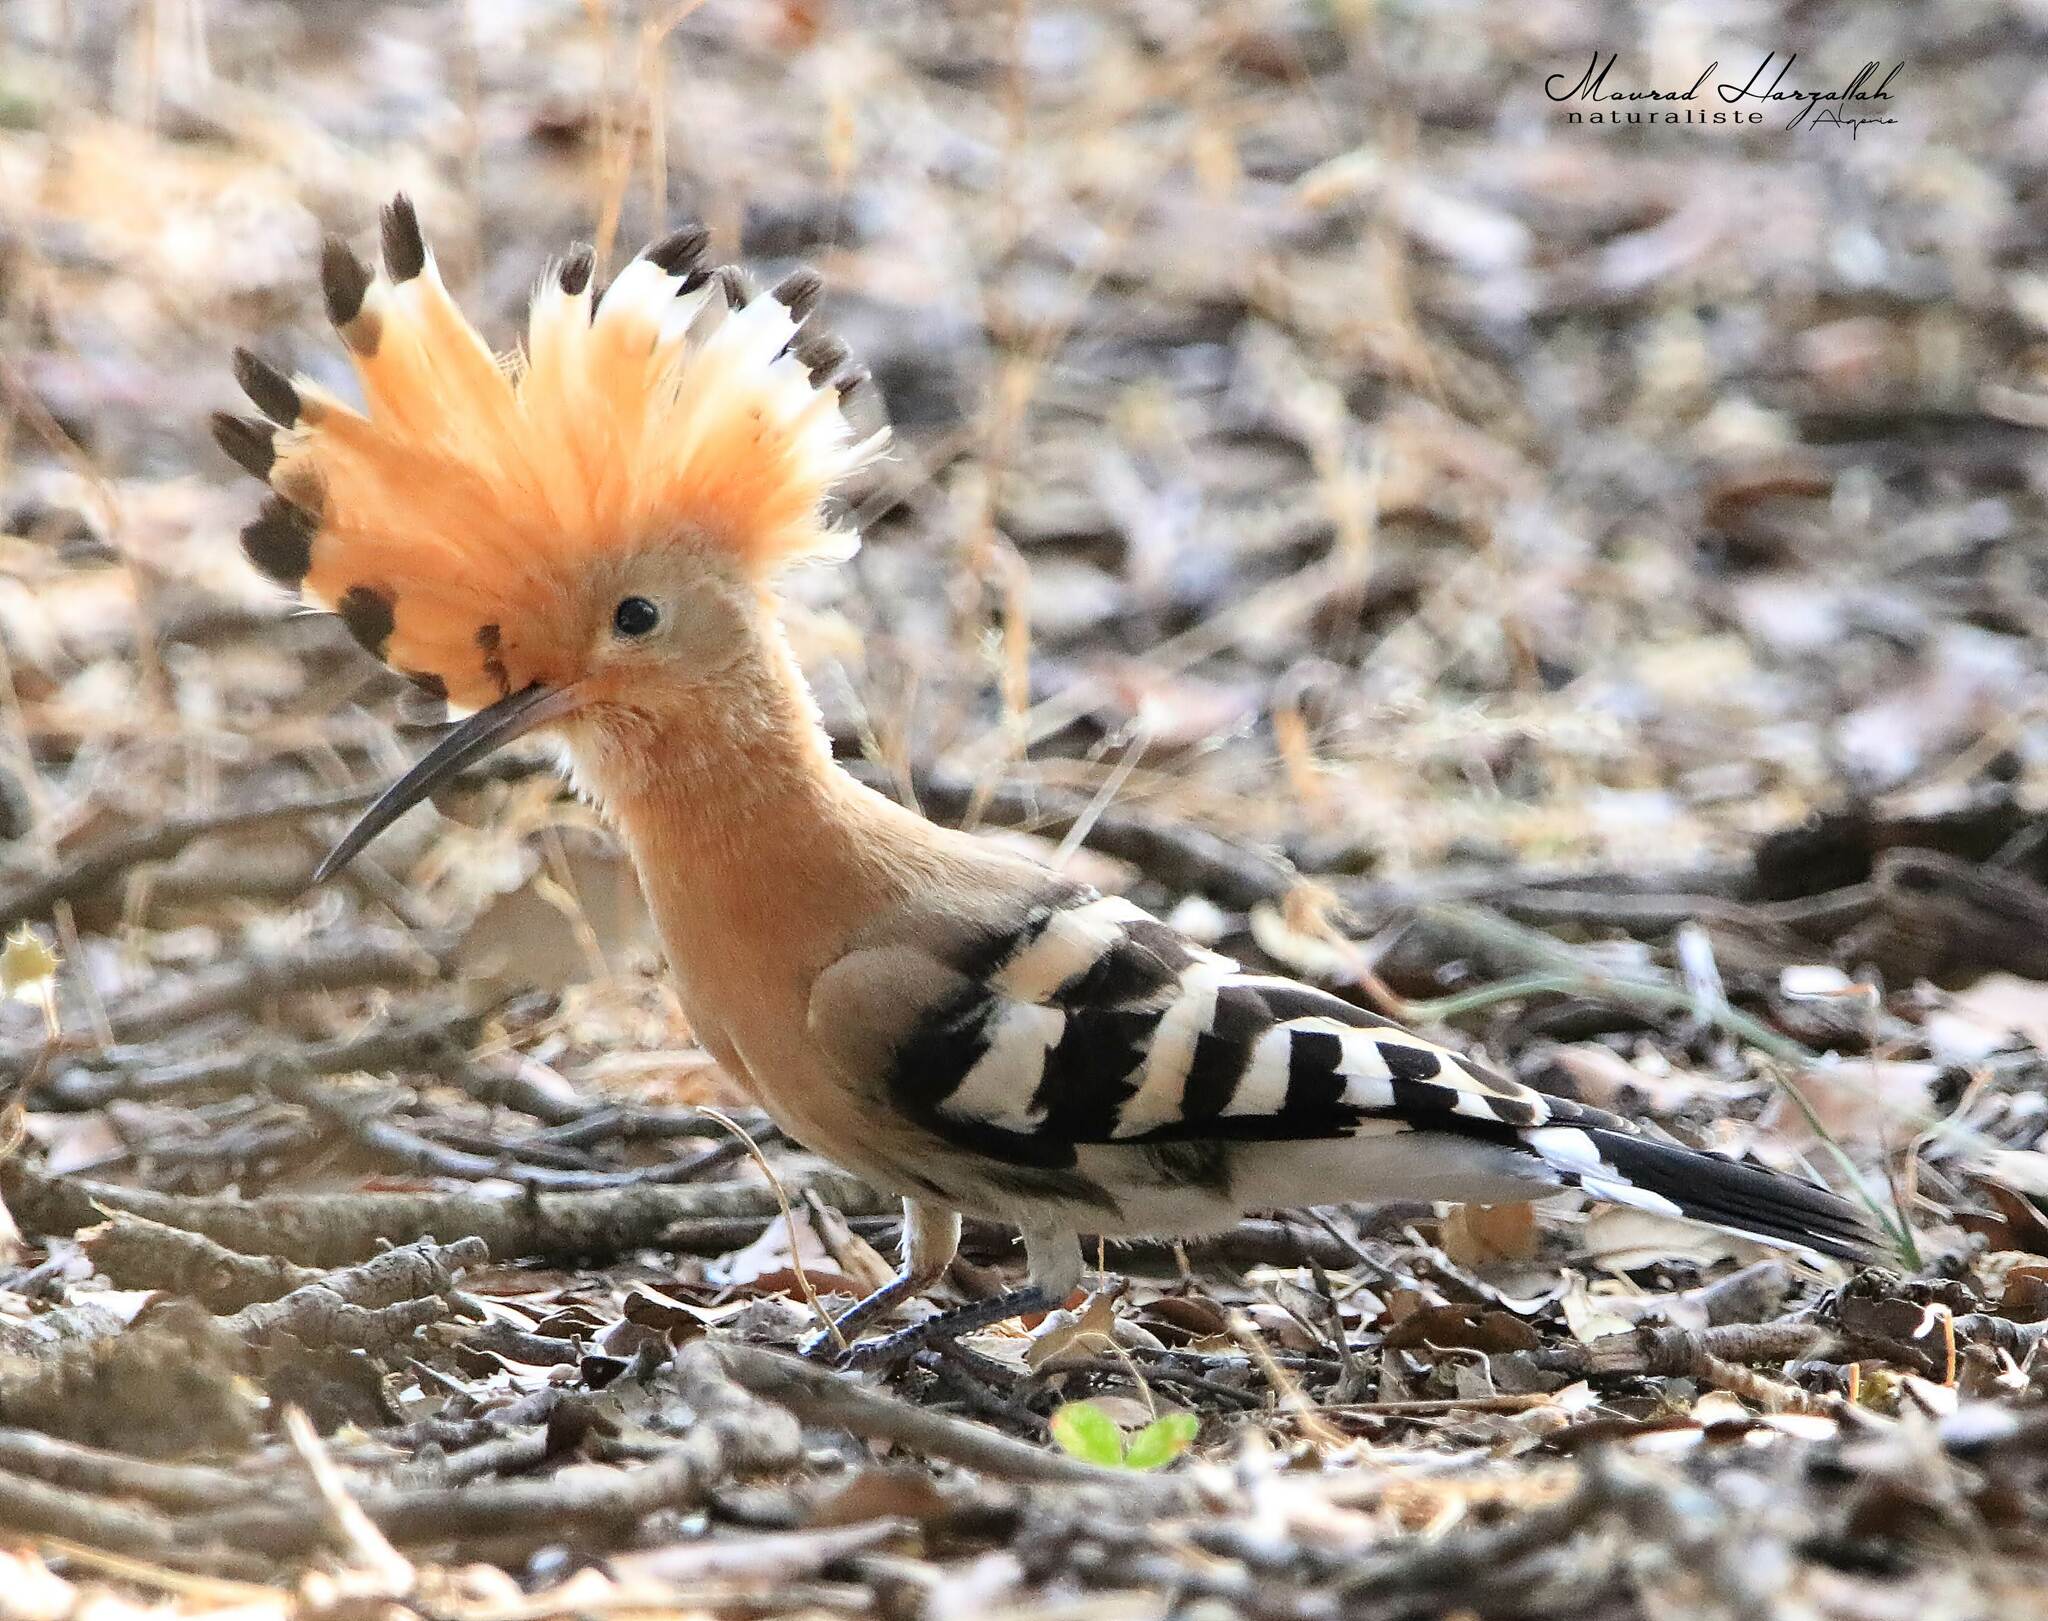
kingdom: Animalia
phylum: Chordata
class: Aves
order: Bucerotiformes
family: Upupidae
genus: Upupa
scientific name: Upupa epops
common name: Eurasian hoopoe
